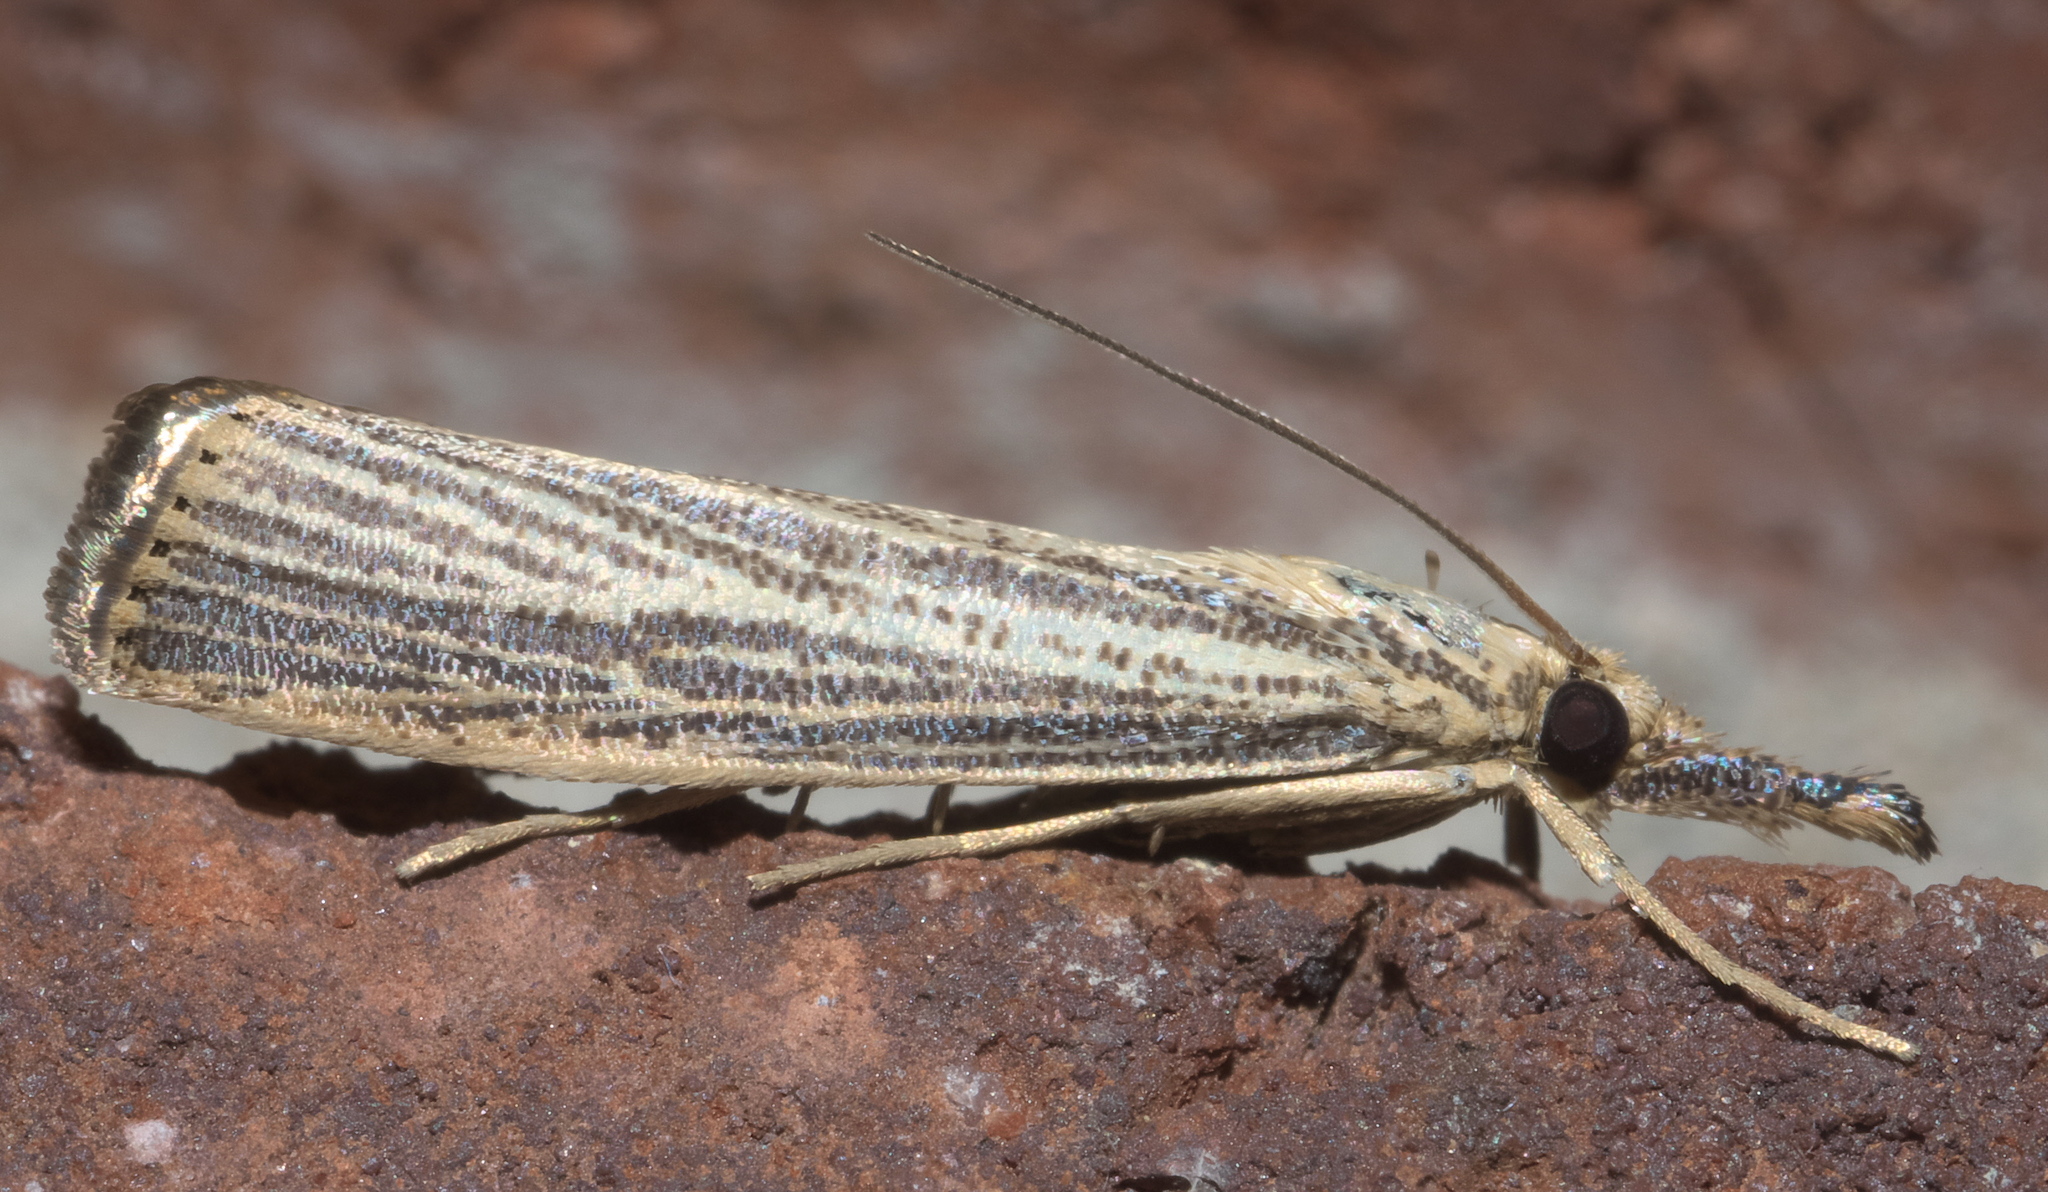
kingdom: Animalia
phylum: Arthropoda
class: Insecta
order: Lepidoptera
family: Crambidae
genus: Agriphila
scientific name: Agriphila vulgivagellus
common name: Vagabond crambus moth
